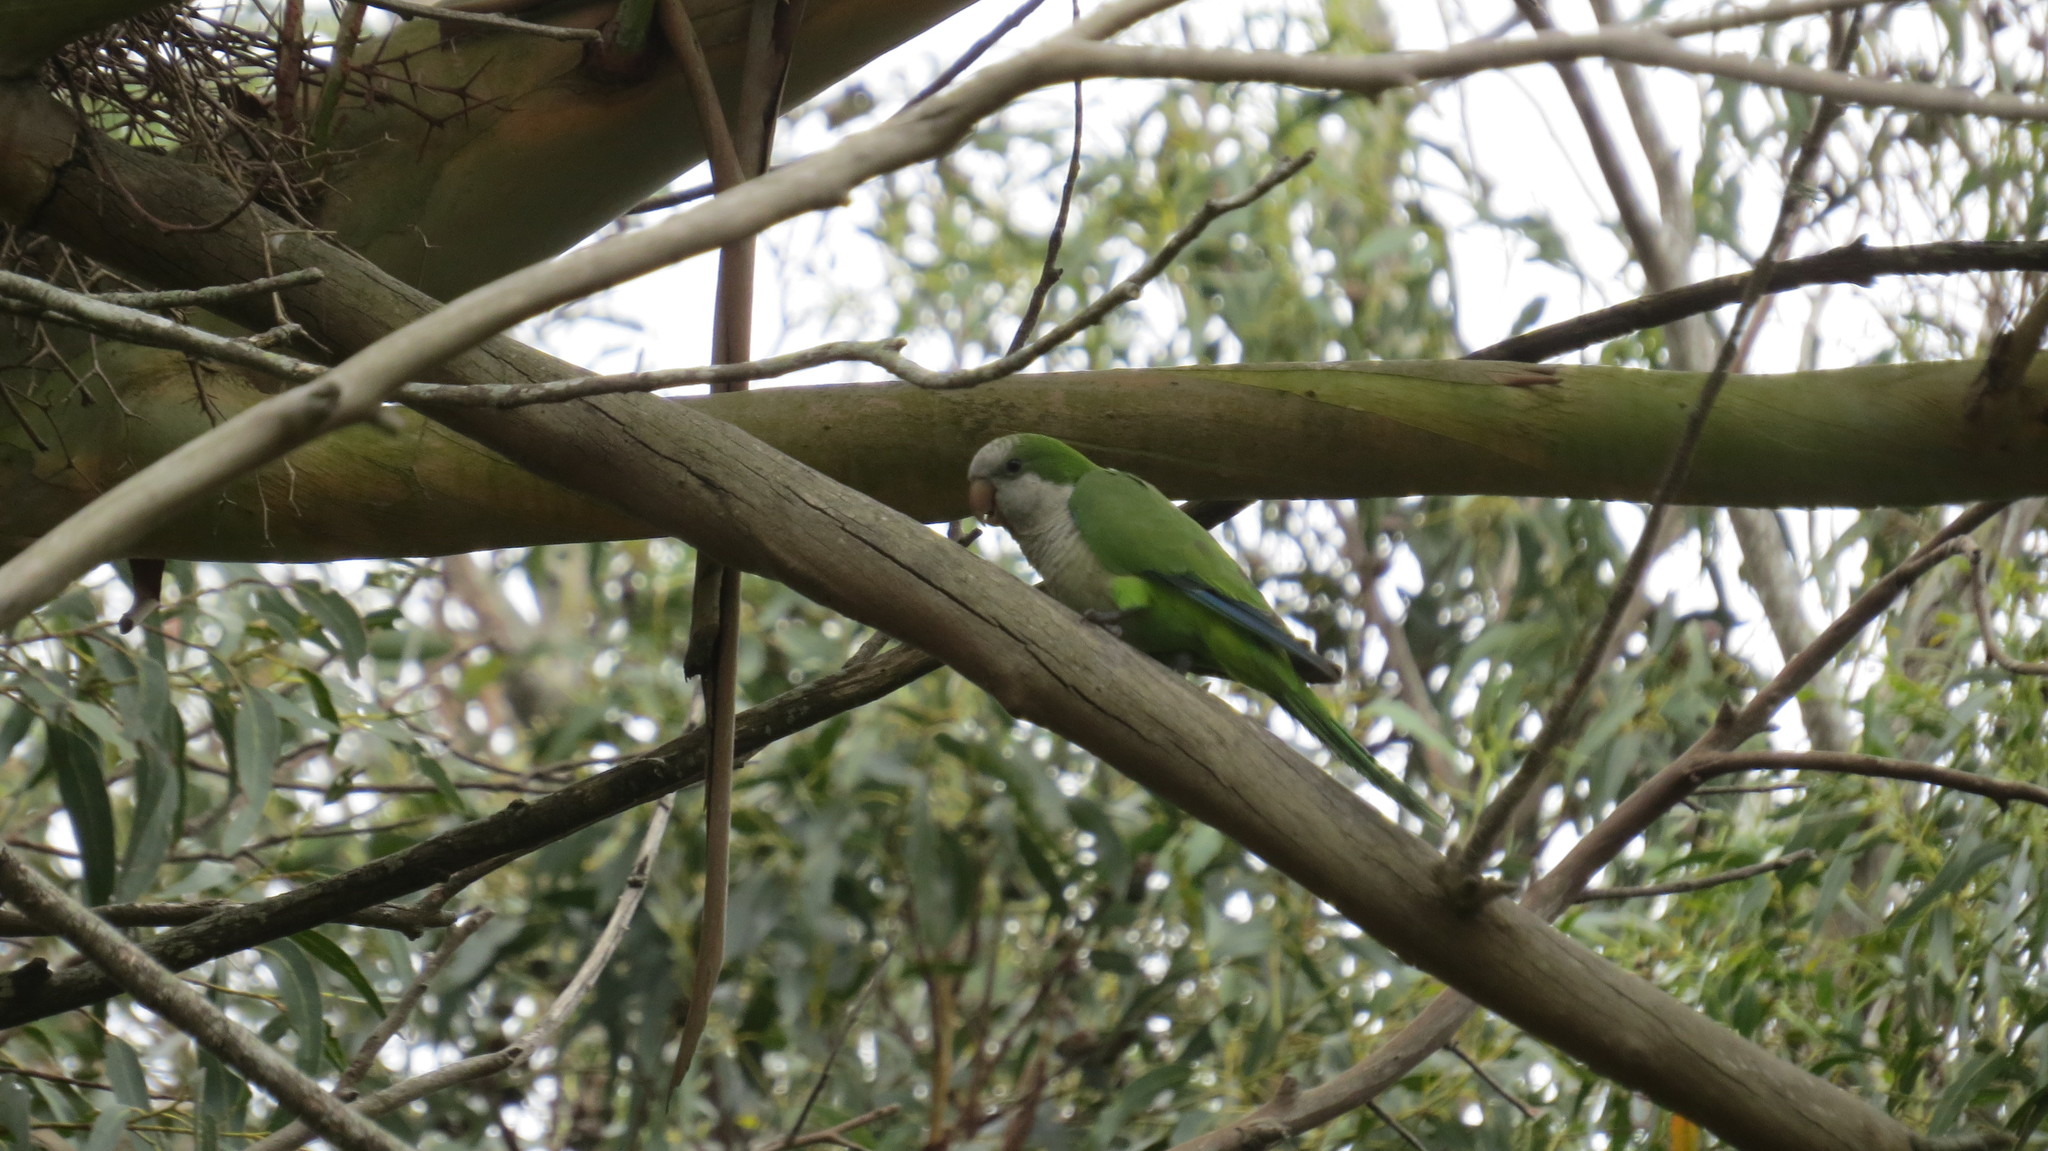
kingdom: Animalia
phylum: Chordata
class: Aves
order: Psittaciformes
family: Psittacidae
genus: Myiopsitta
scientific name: Myiopsitta monachus
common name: Monk parakeet
